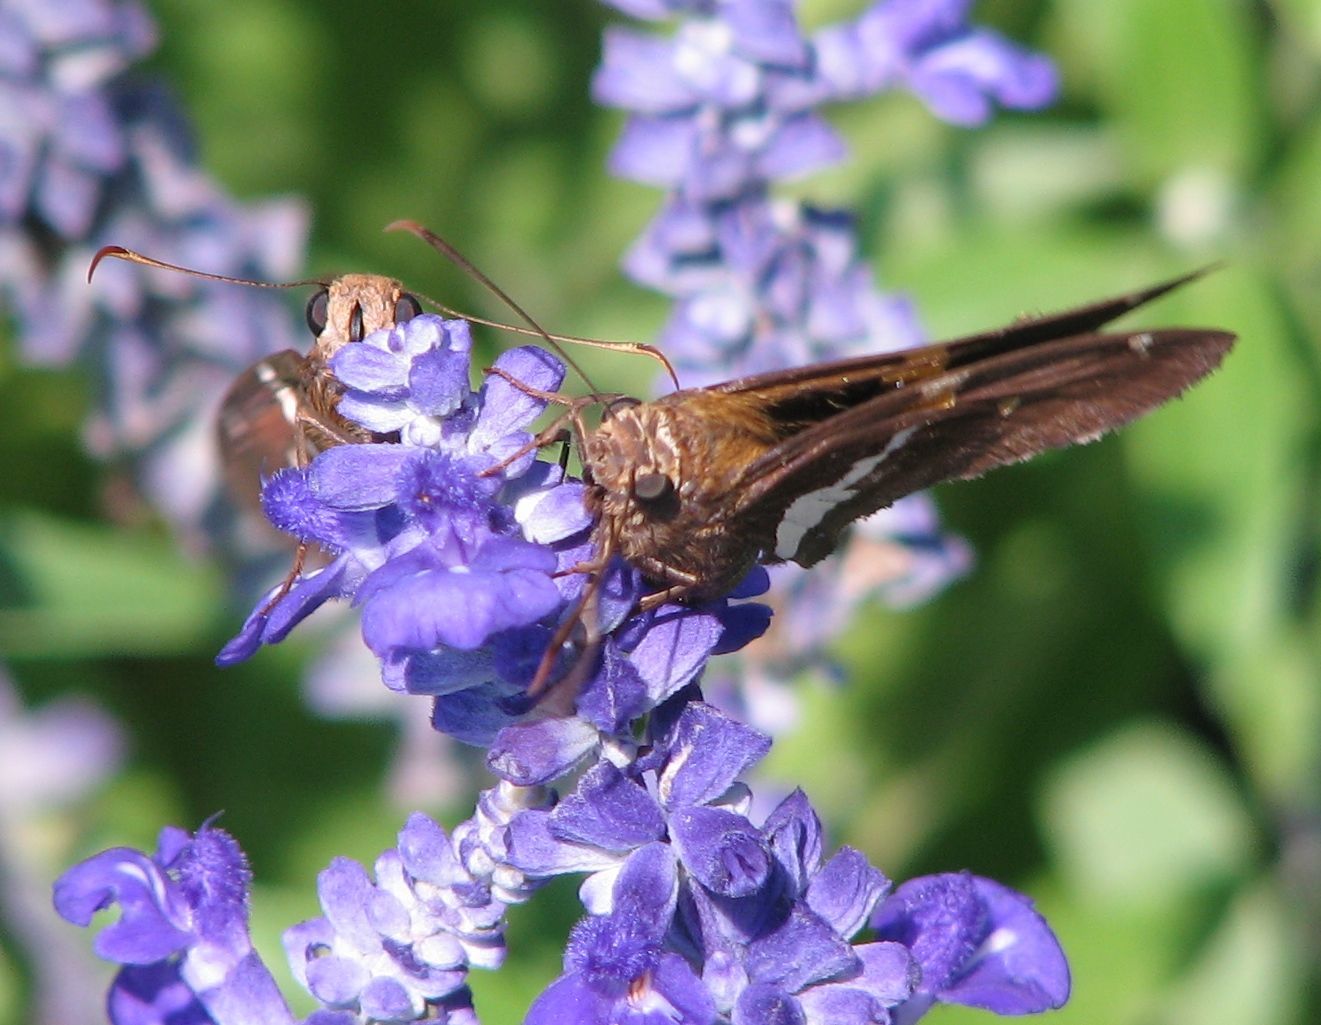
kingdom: Animalia
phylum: Arthropoda
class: Insecta
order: Lepidoptera
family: Hesperiidae
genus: Epargyreus
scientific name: Epargyreus clarus
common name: Silver-spotted skipper
